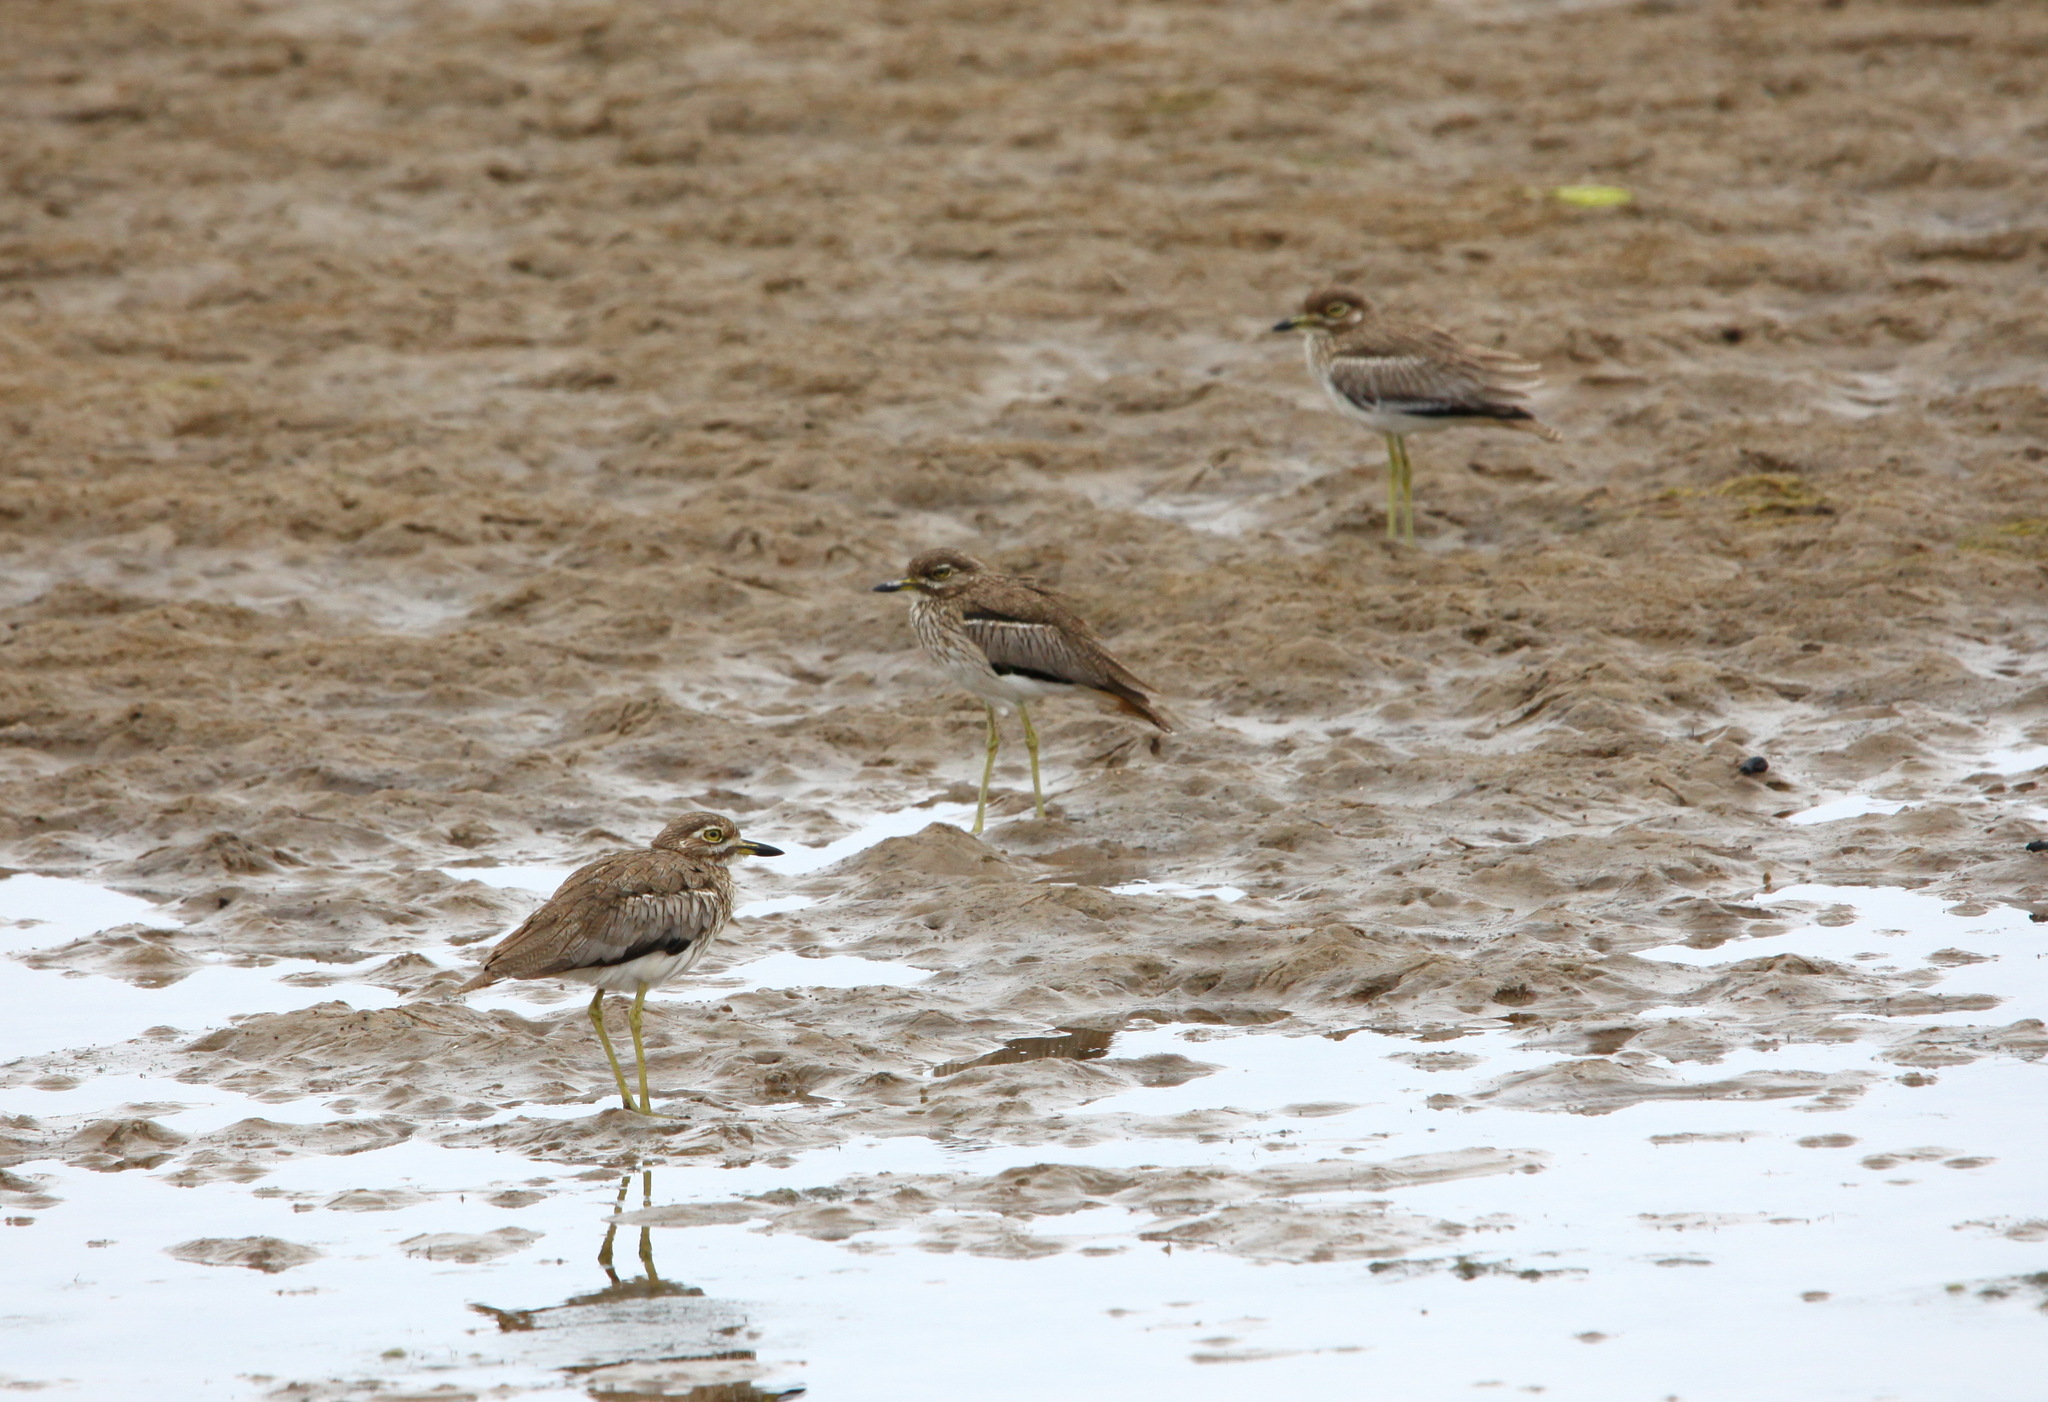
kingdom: Animalia
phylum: Chordata
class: Aves
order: Charadriiformes
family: Burhinidae
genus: Burhinus
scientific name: Burhinus vermiculatus
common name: Water thick-knee
